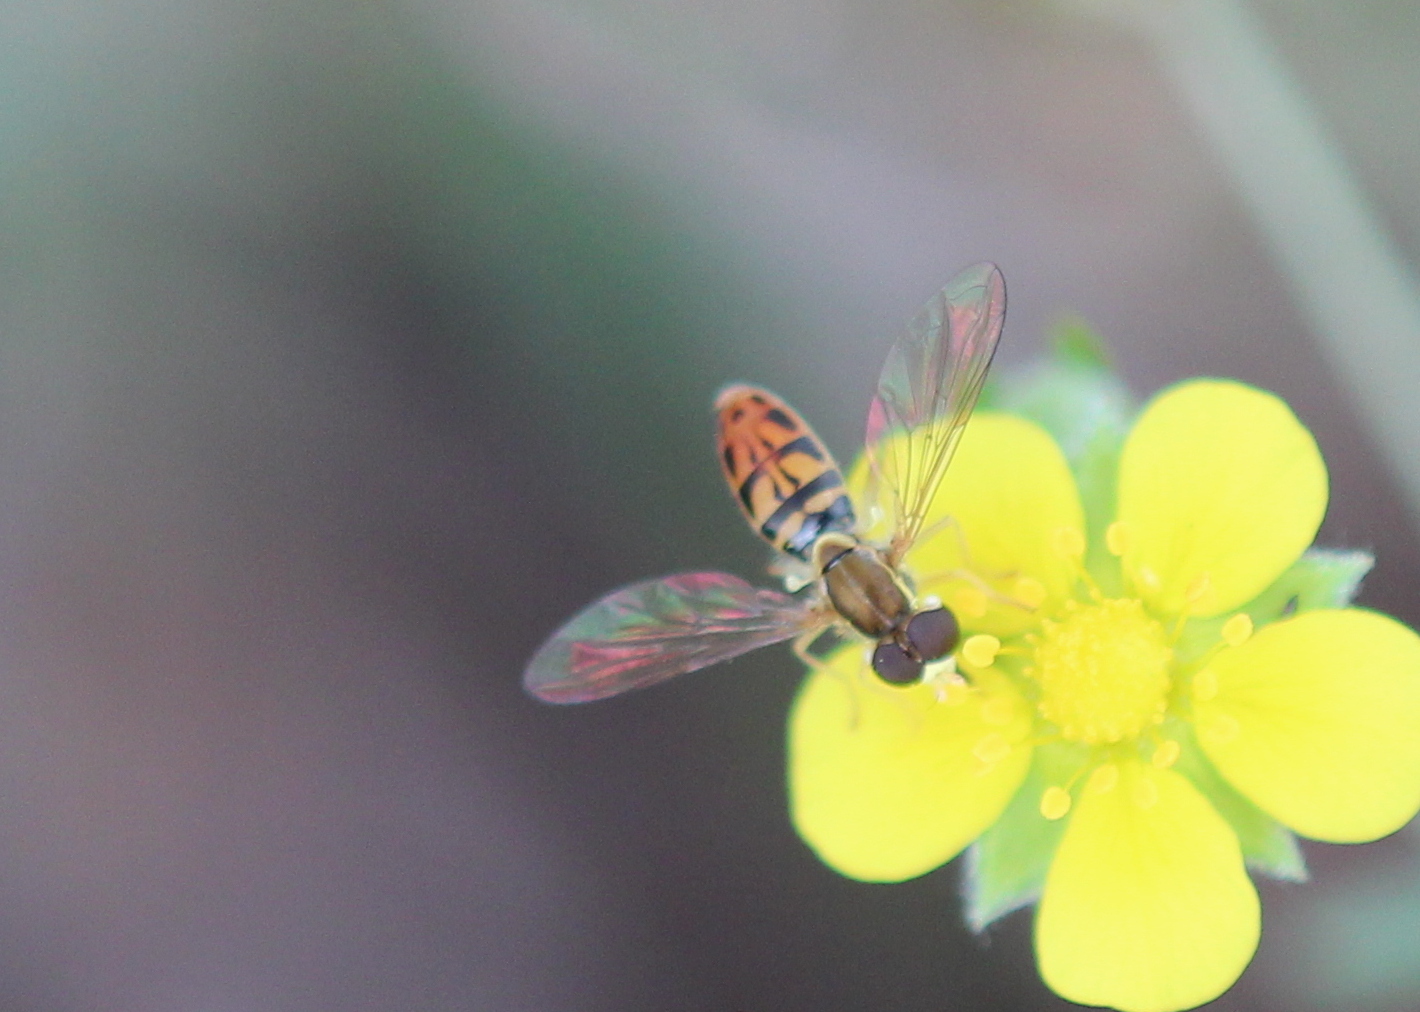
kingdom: Animalia
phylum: Arthropoda
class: Insecta
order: Diptera
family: Syrphidae
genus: Toxomerus
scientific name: Toxomerus marginatus
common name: Syrphid fly
